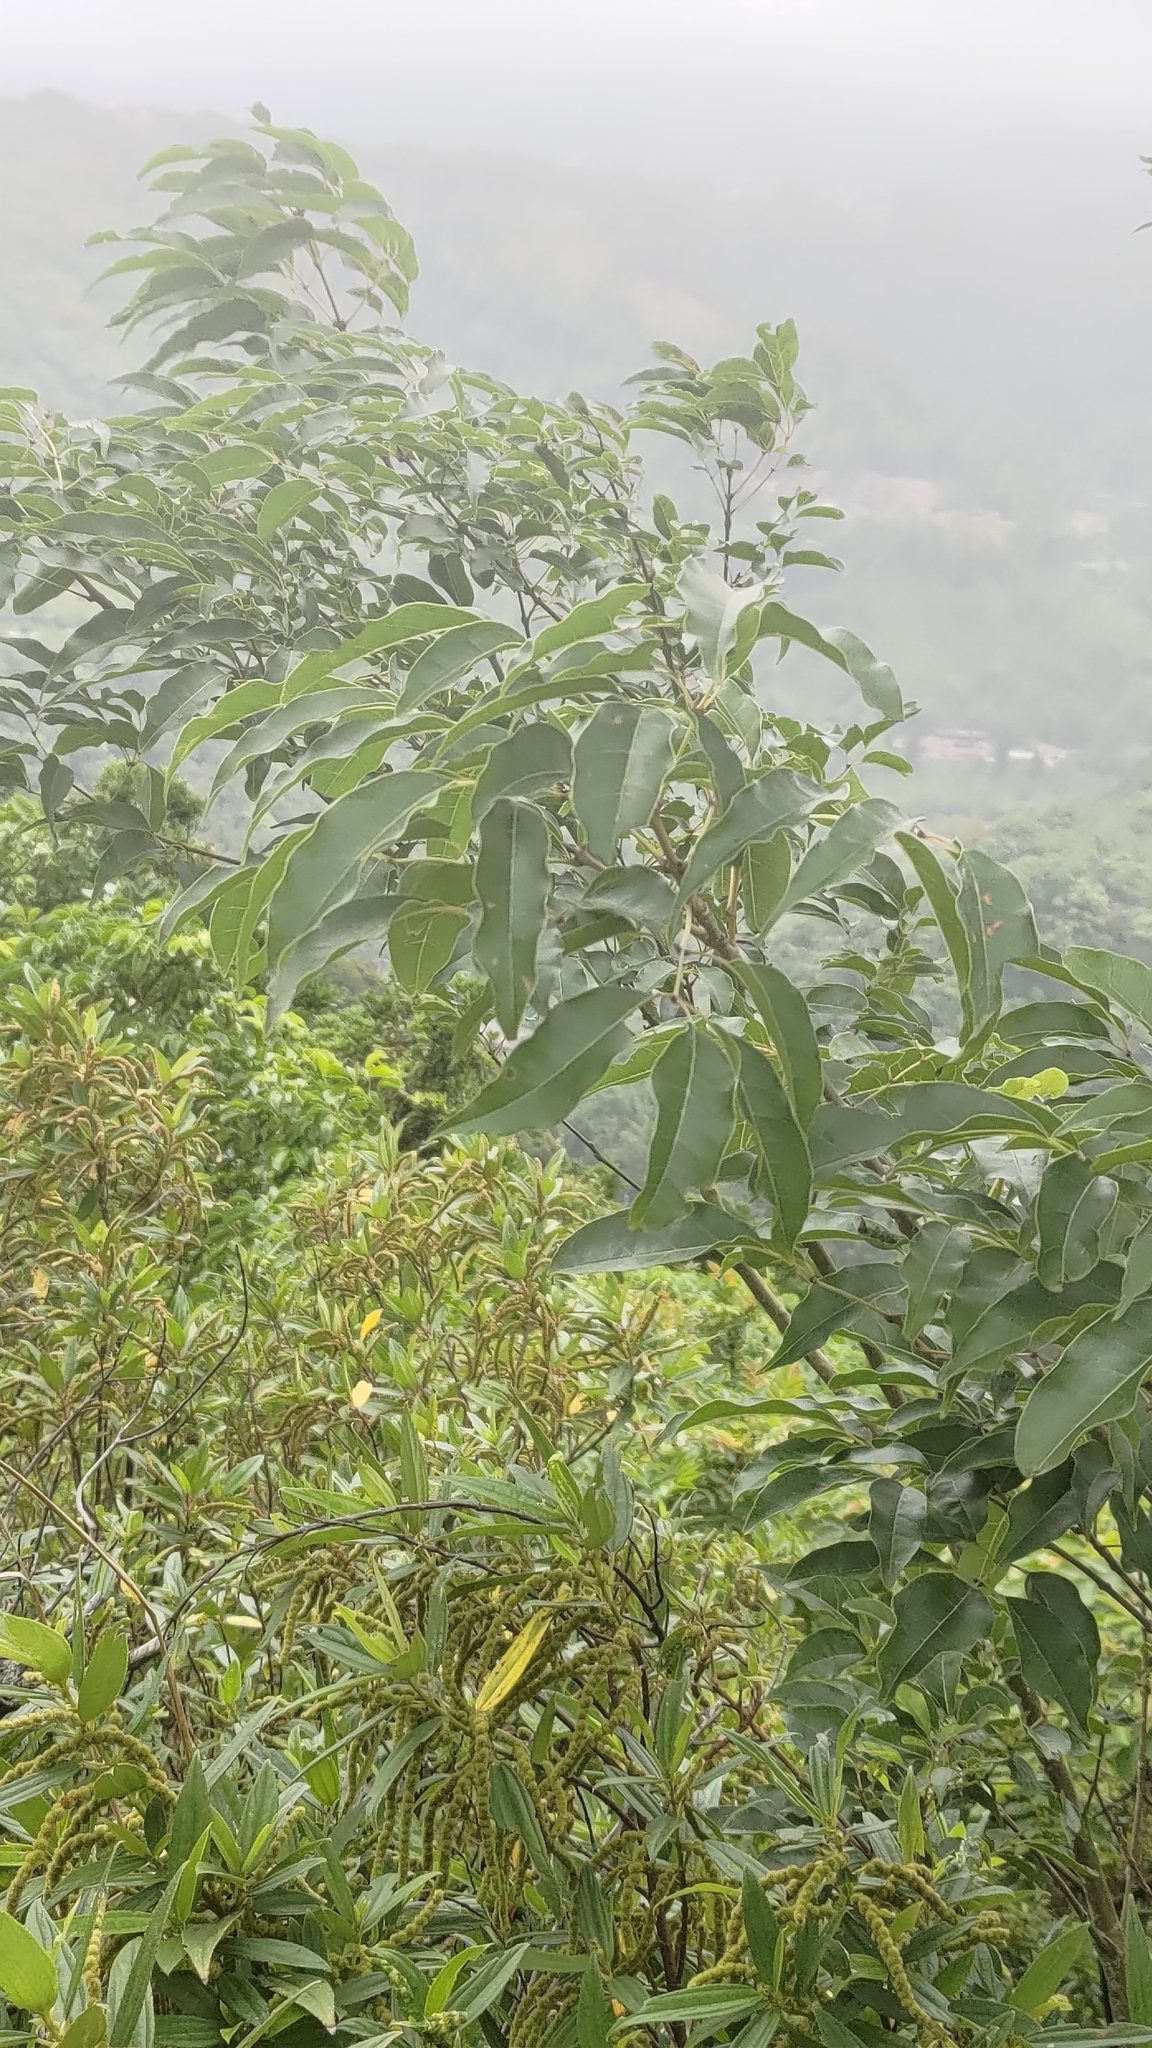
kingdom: Plantae
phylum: Tracheophyta
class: Magnoliopsida
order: Lamiales
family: Oleaceae
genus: Fraxinus
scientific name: Fraxinus insularis
